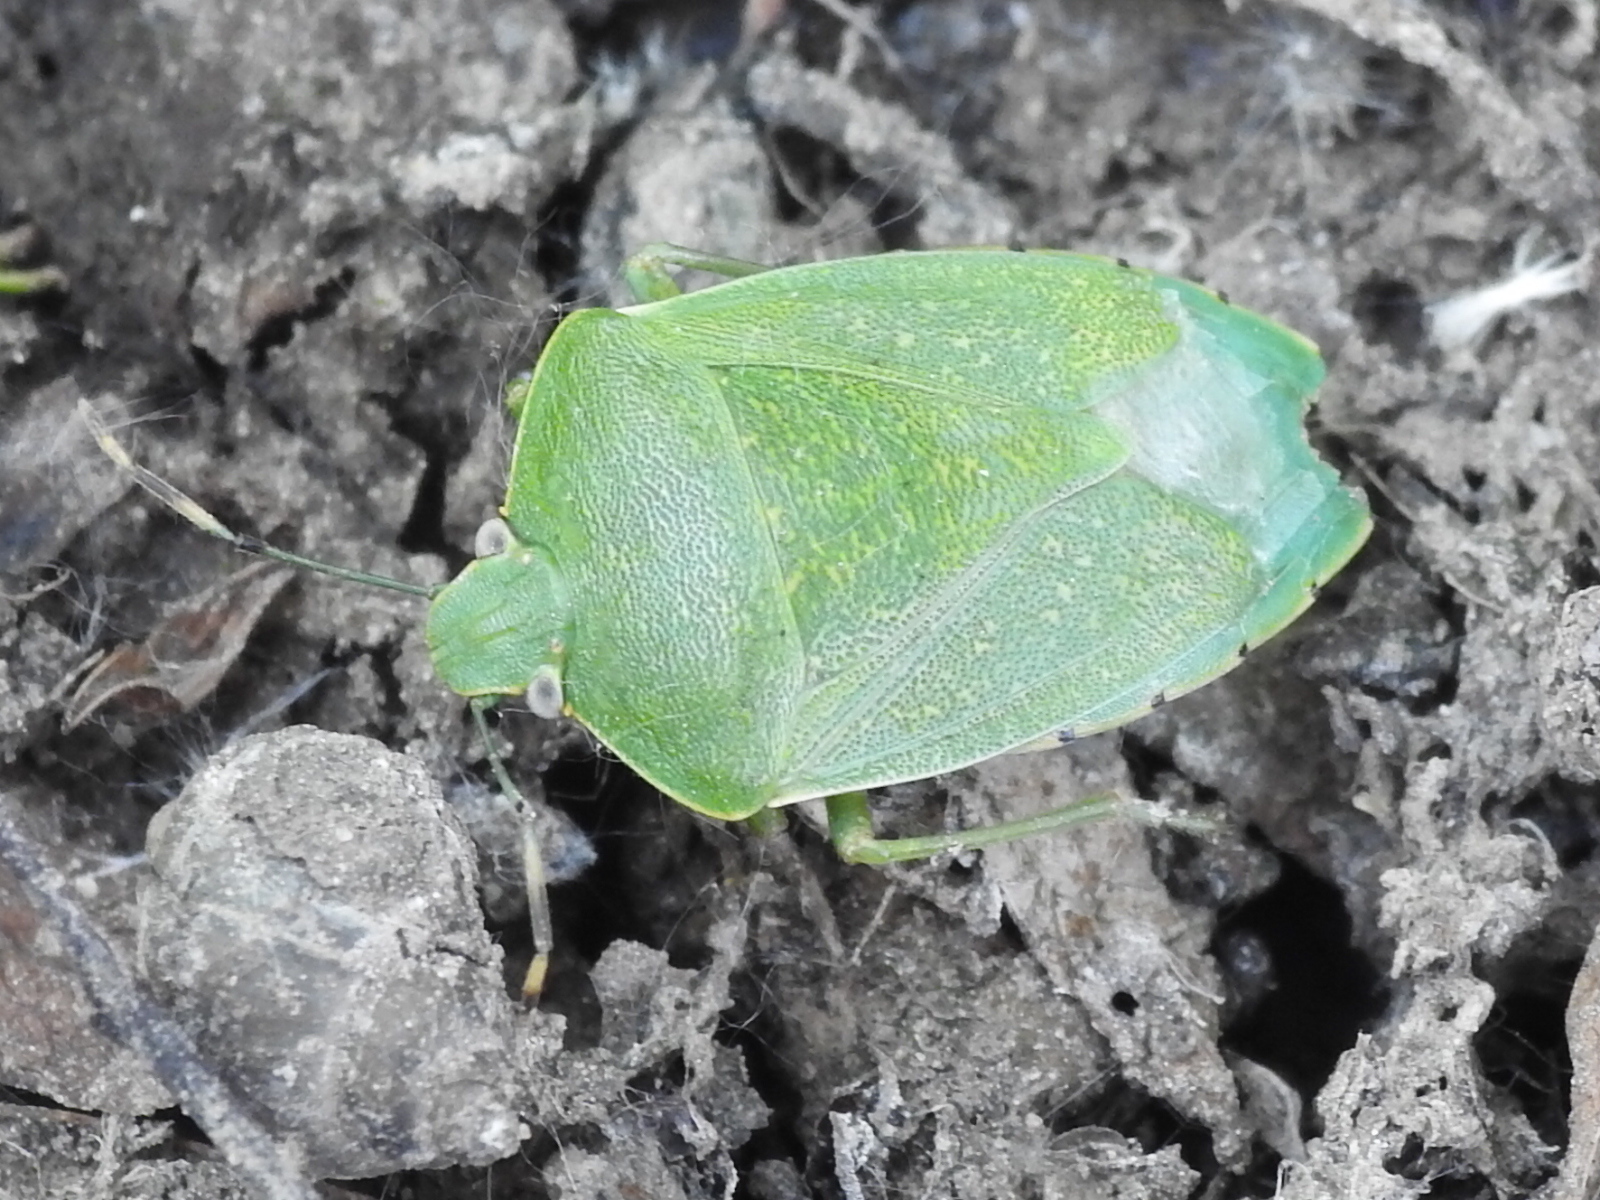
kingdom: Animalia
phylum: Arthropoda
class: Insecta
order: Hemiptera
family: Pentatomidae
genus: Chinavia
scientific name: Chinavia hilaris
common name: Green stink bug
